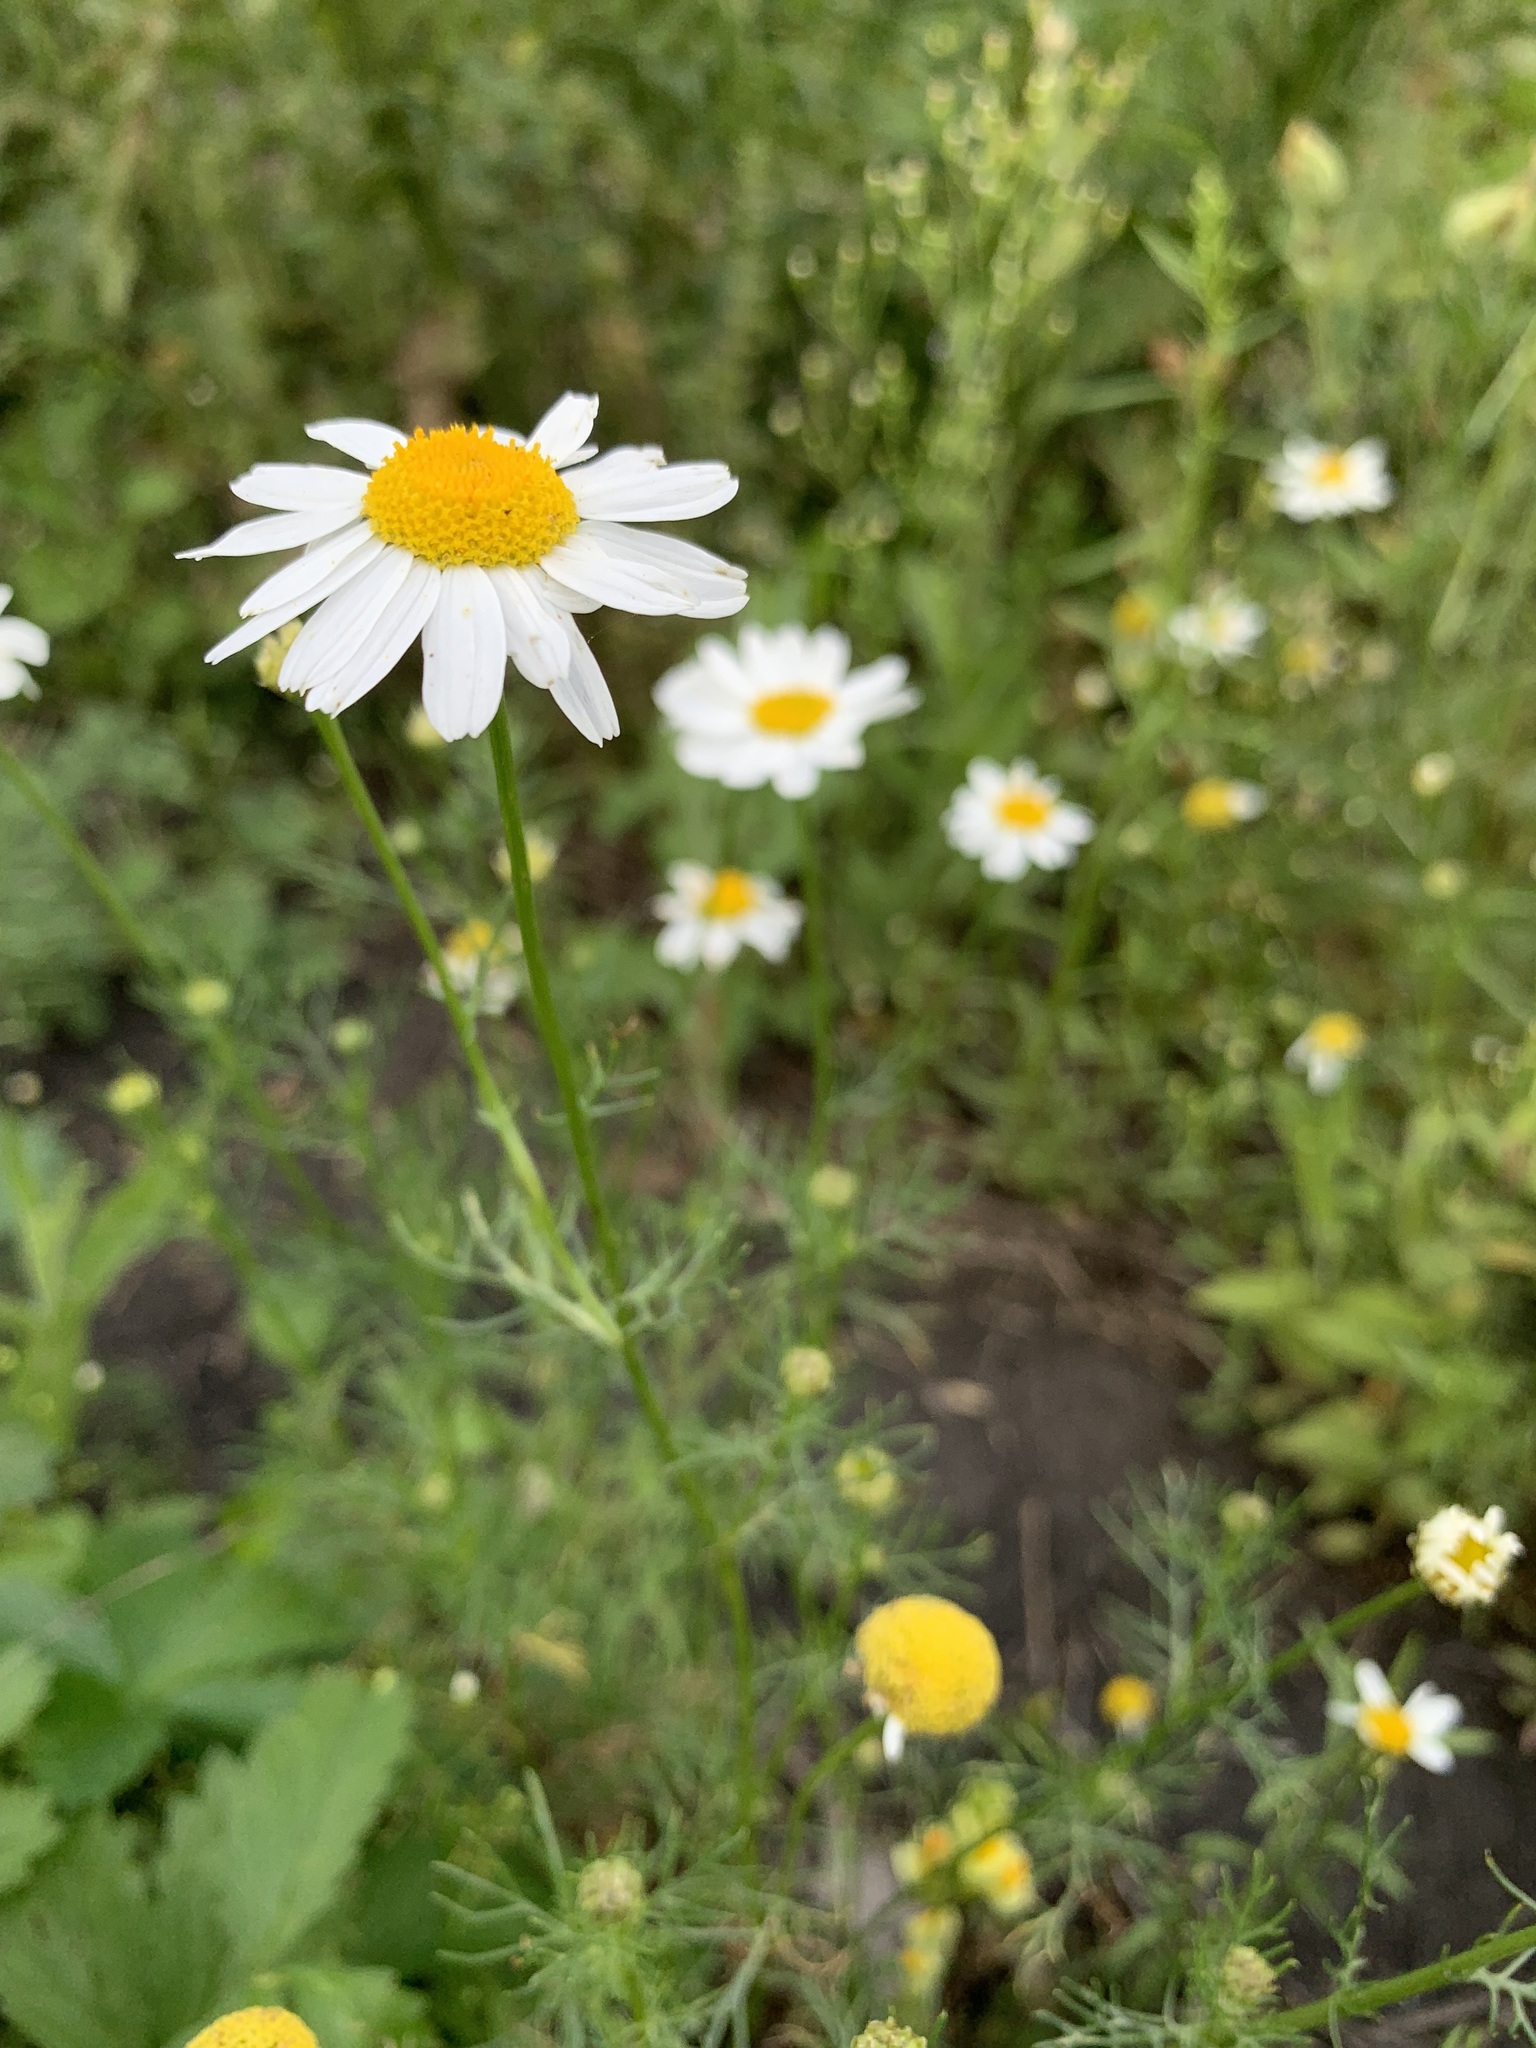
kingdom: Plantae
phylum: Tracheophyta
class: Magnoliopsida
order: Asterales
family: Asteraceae
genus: Tripleurospermum
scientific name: Tripleurospermum inodorum
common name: Scentless mayweed
